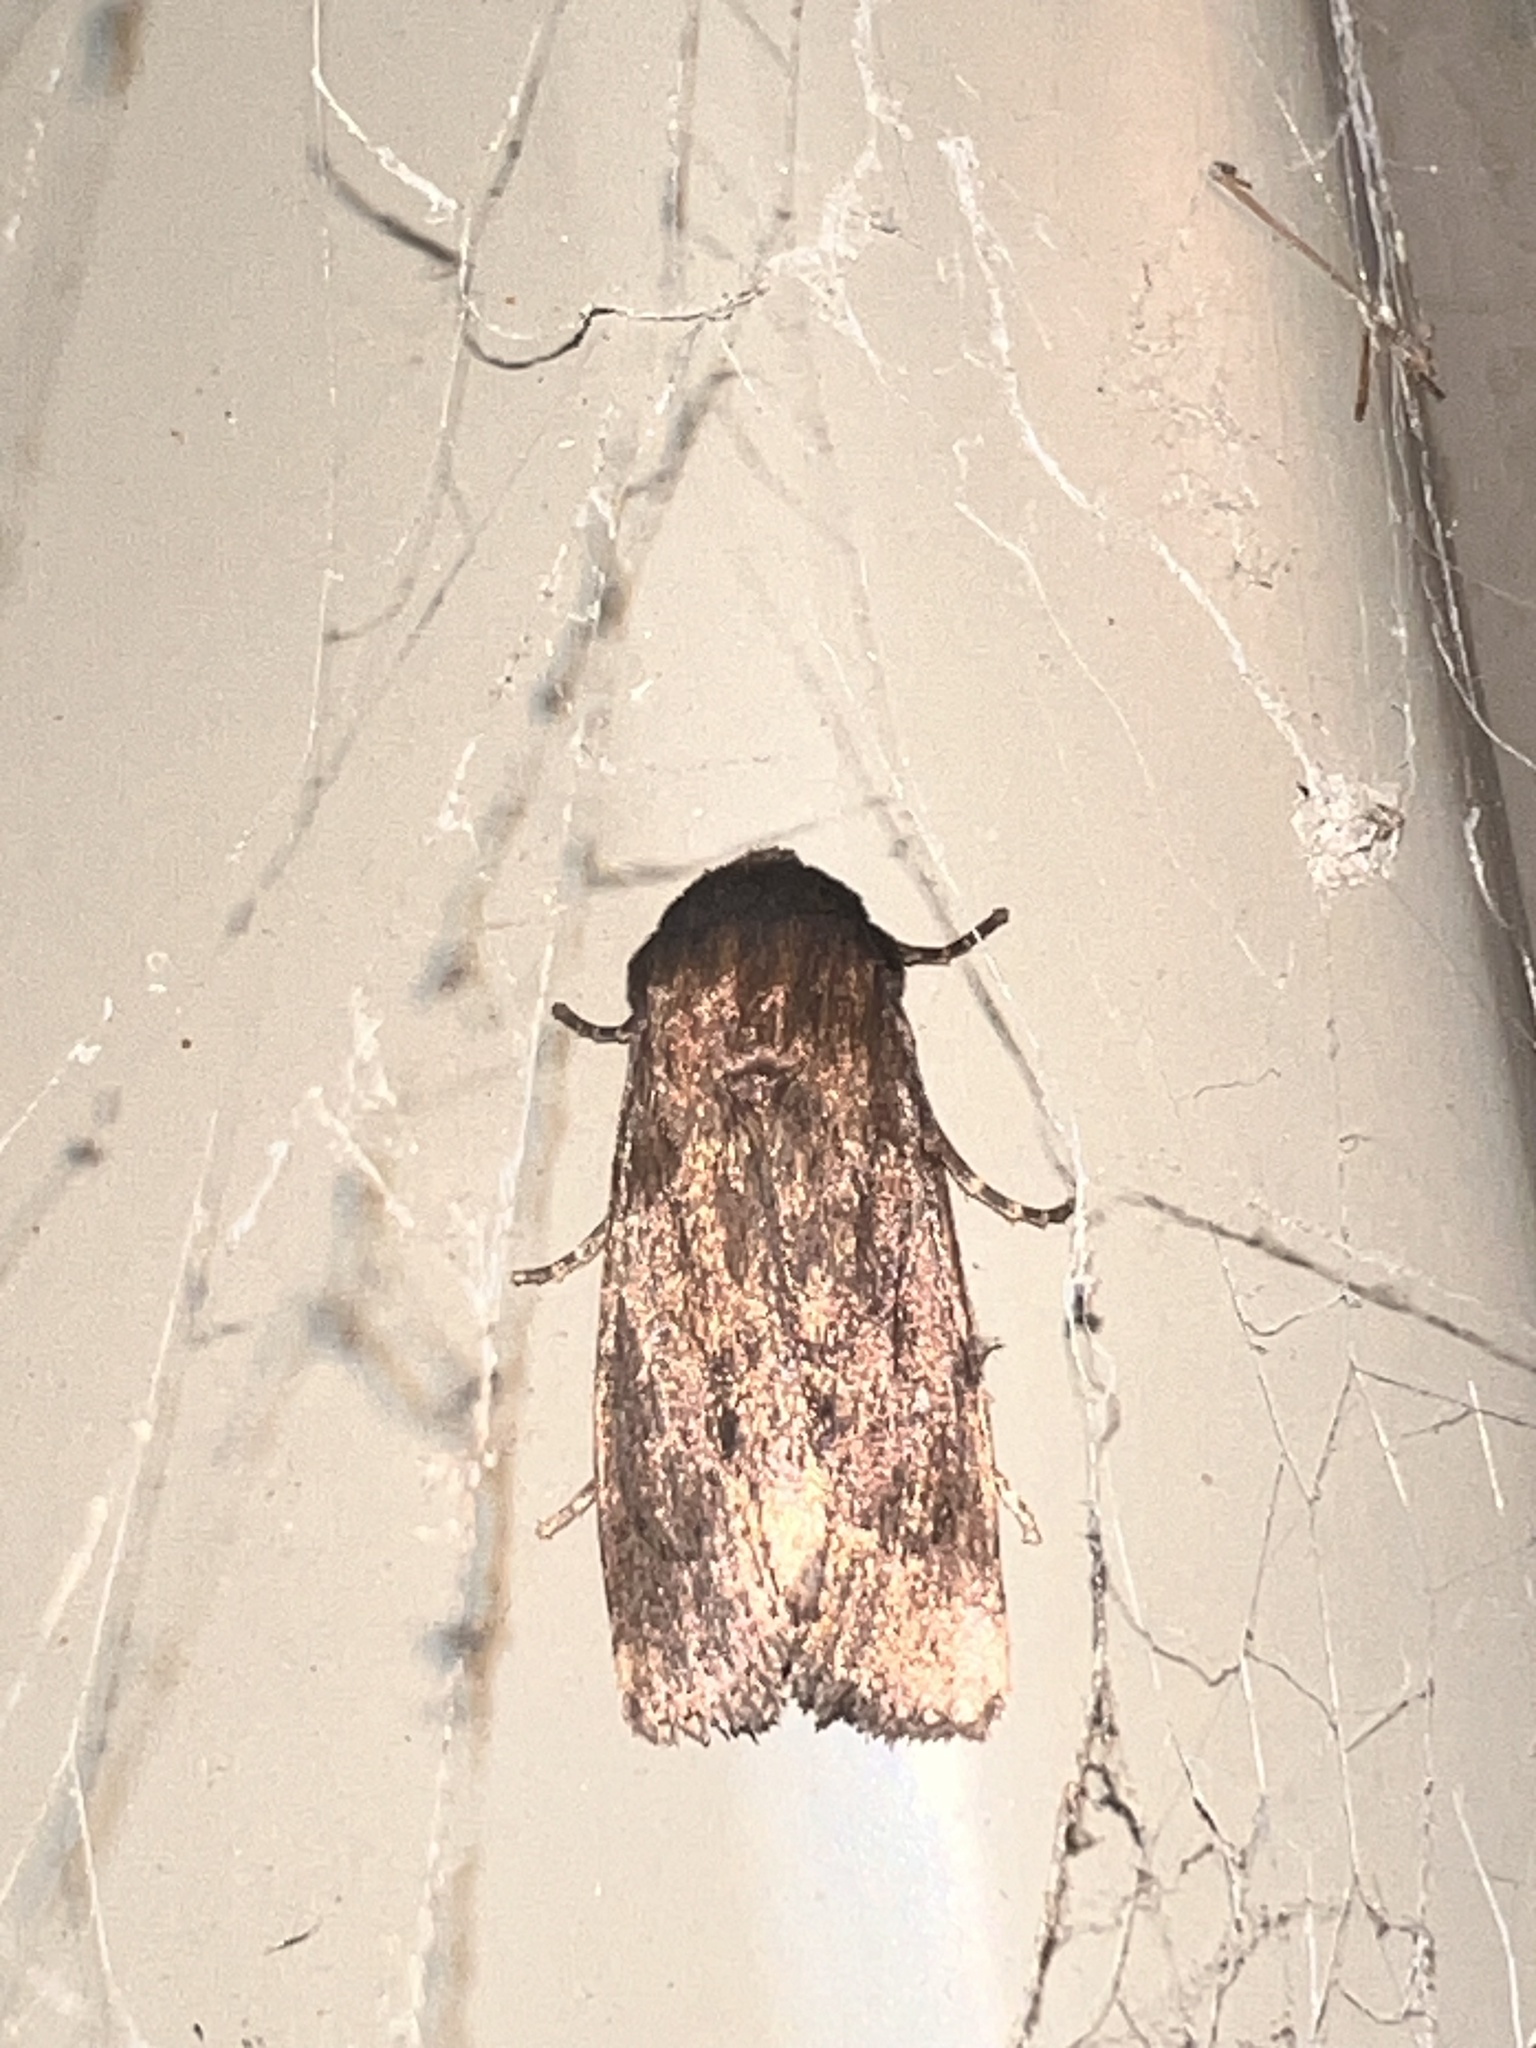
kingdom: Animalia
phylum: Arthropoda
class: Insecta
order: Lepidoptera
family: Noctuidae
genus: Bityla
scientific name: Bityla defigurata
